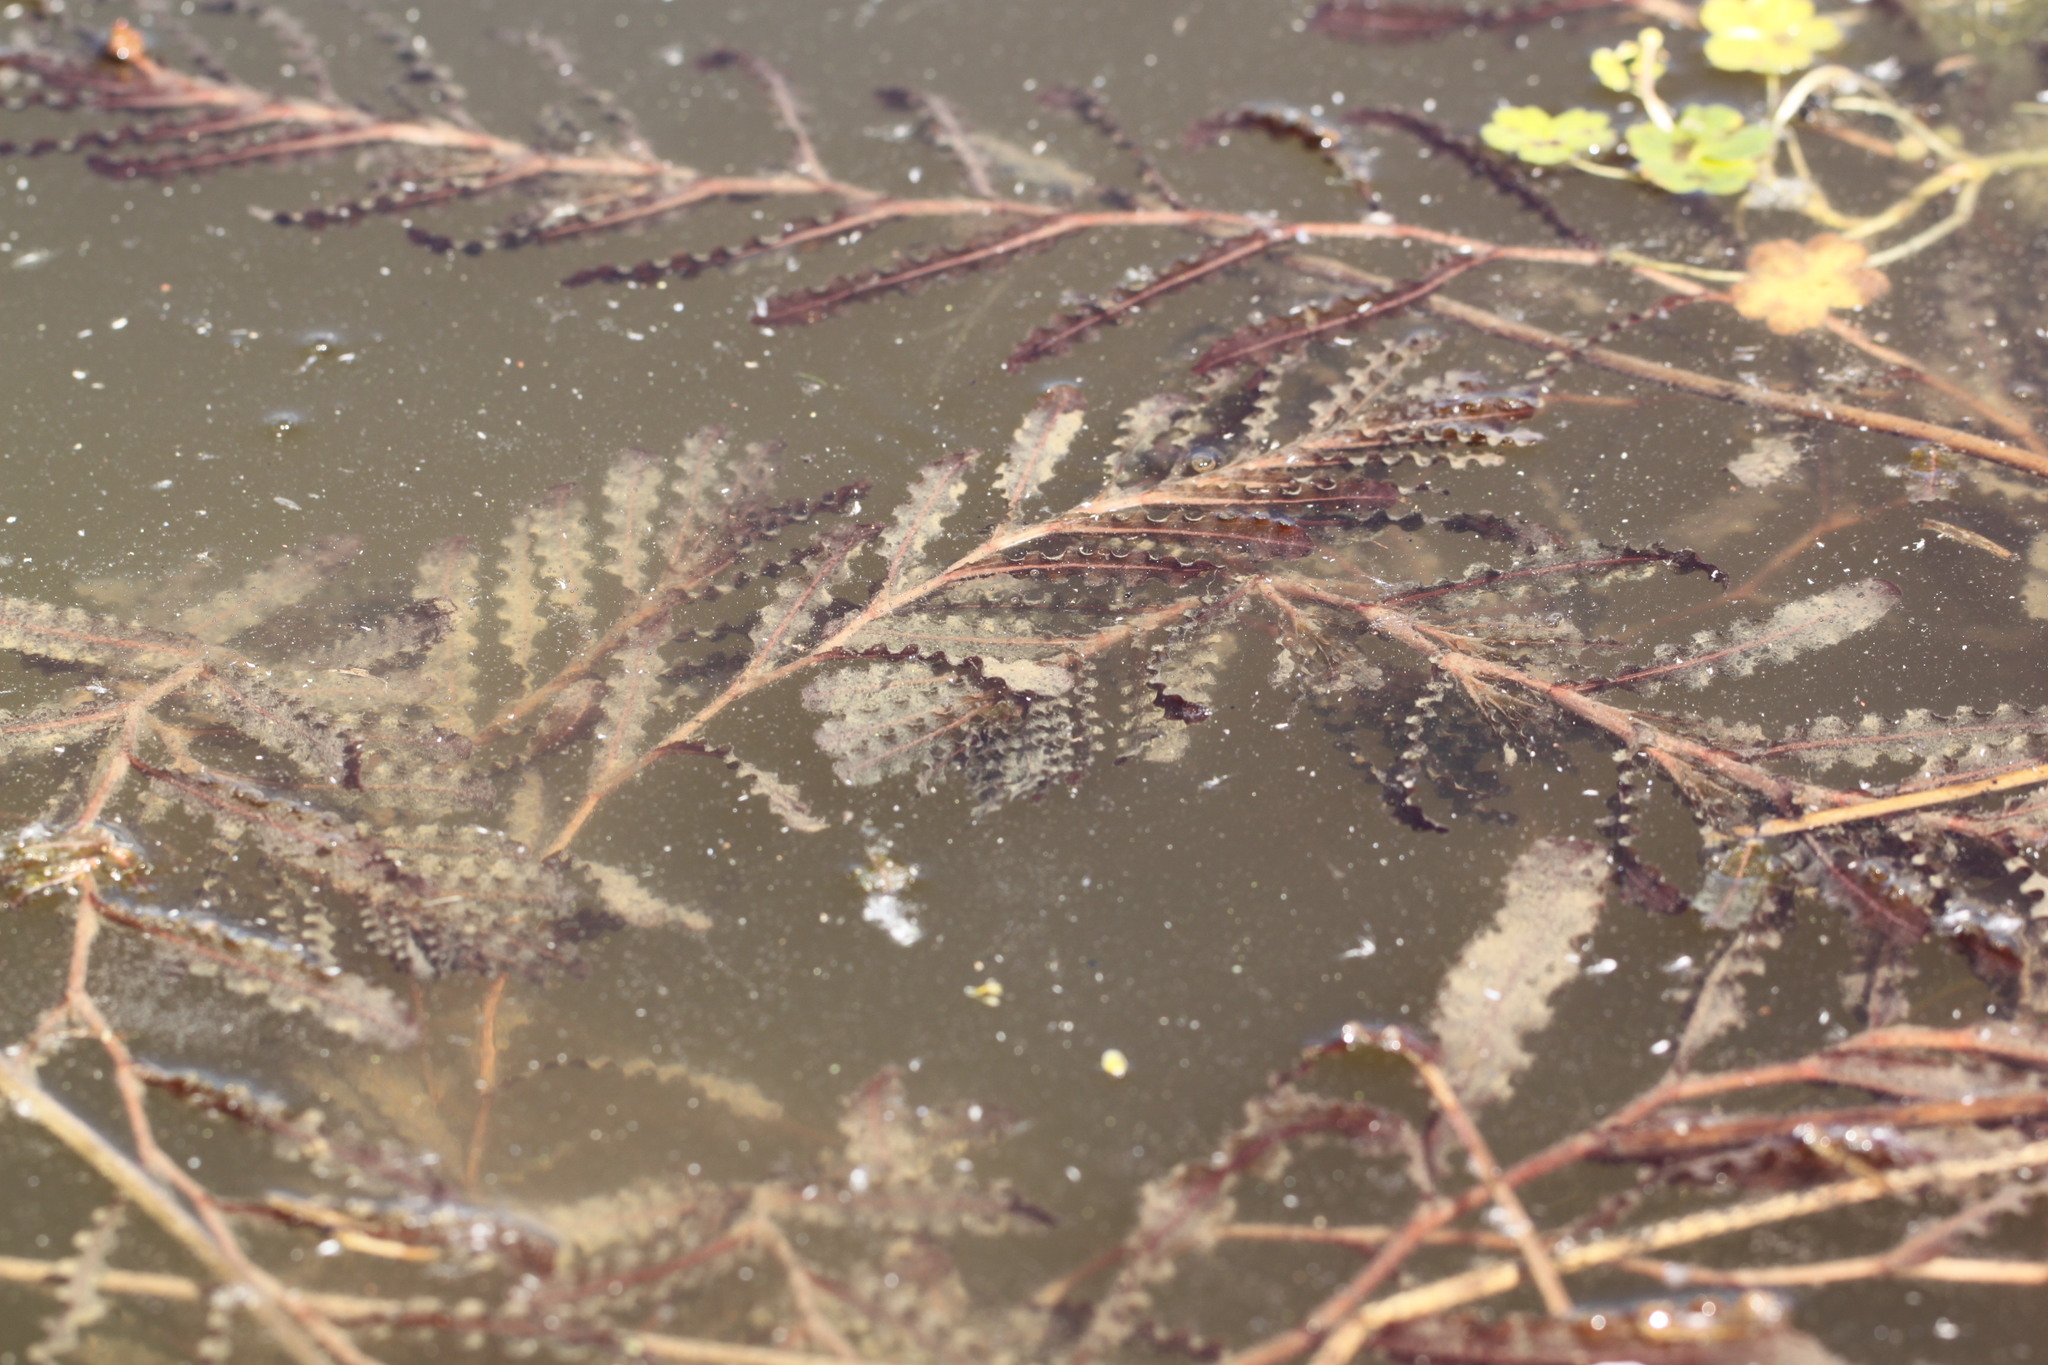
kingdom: Plantae
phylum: Tracheophyta
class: Liliopsida
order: Alismatales
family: Potamogetonaceae
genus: Potamogeton
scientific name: Potamogeton crispus
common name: Curled pondweed
